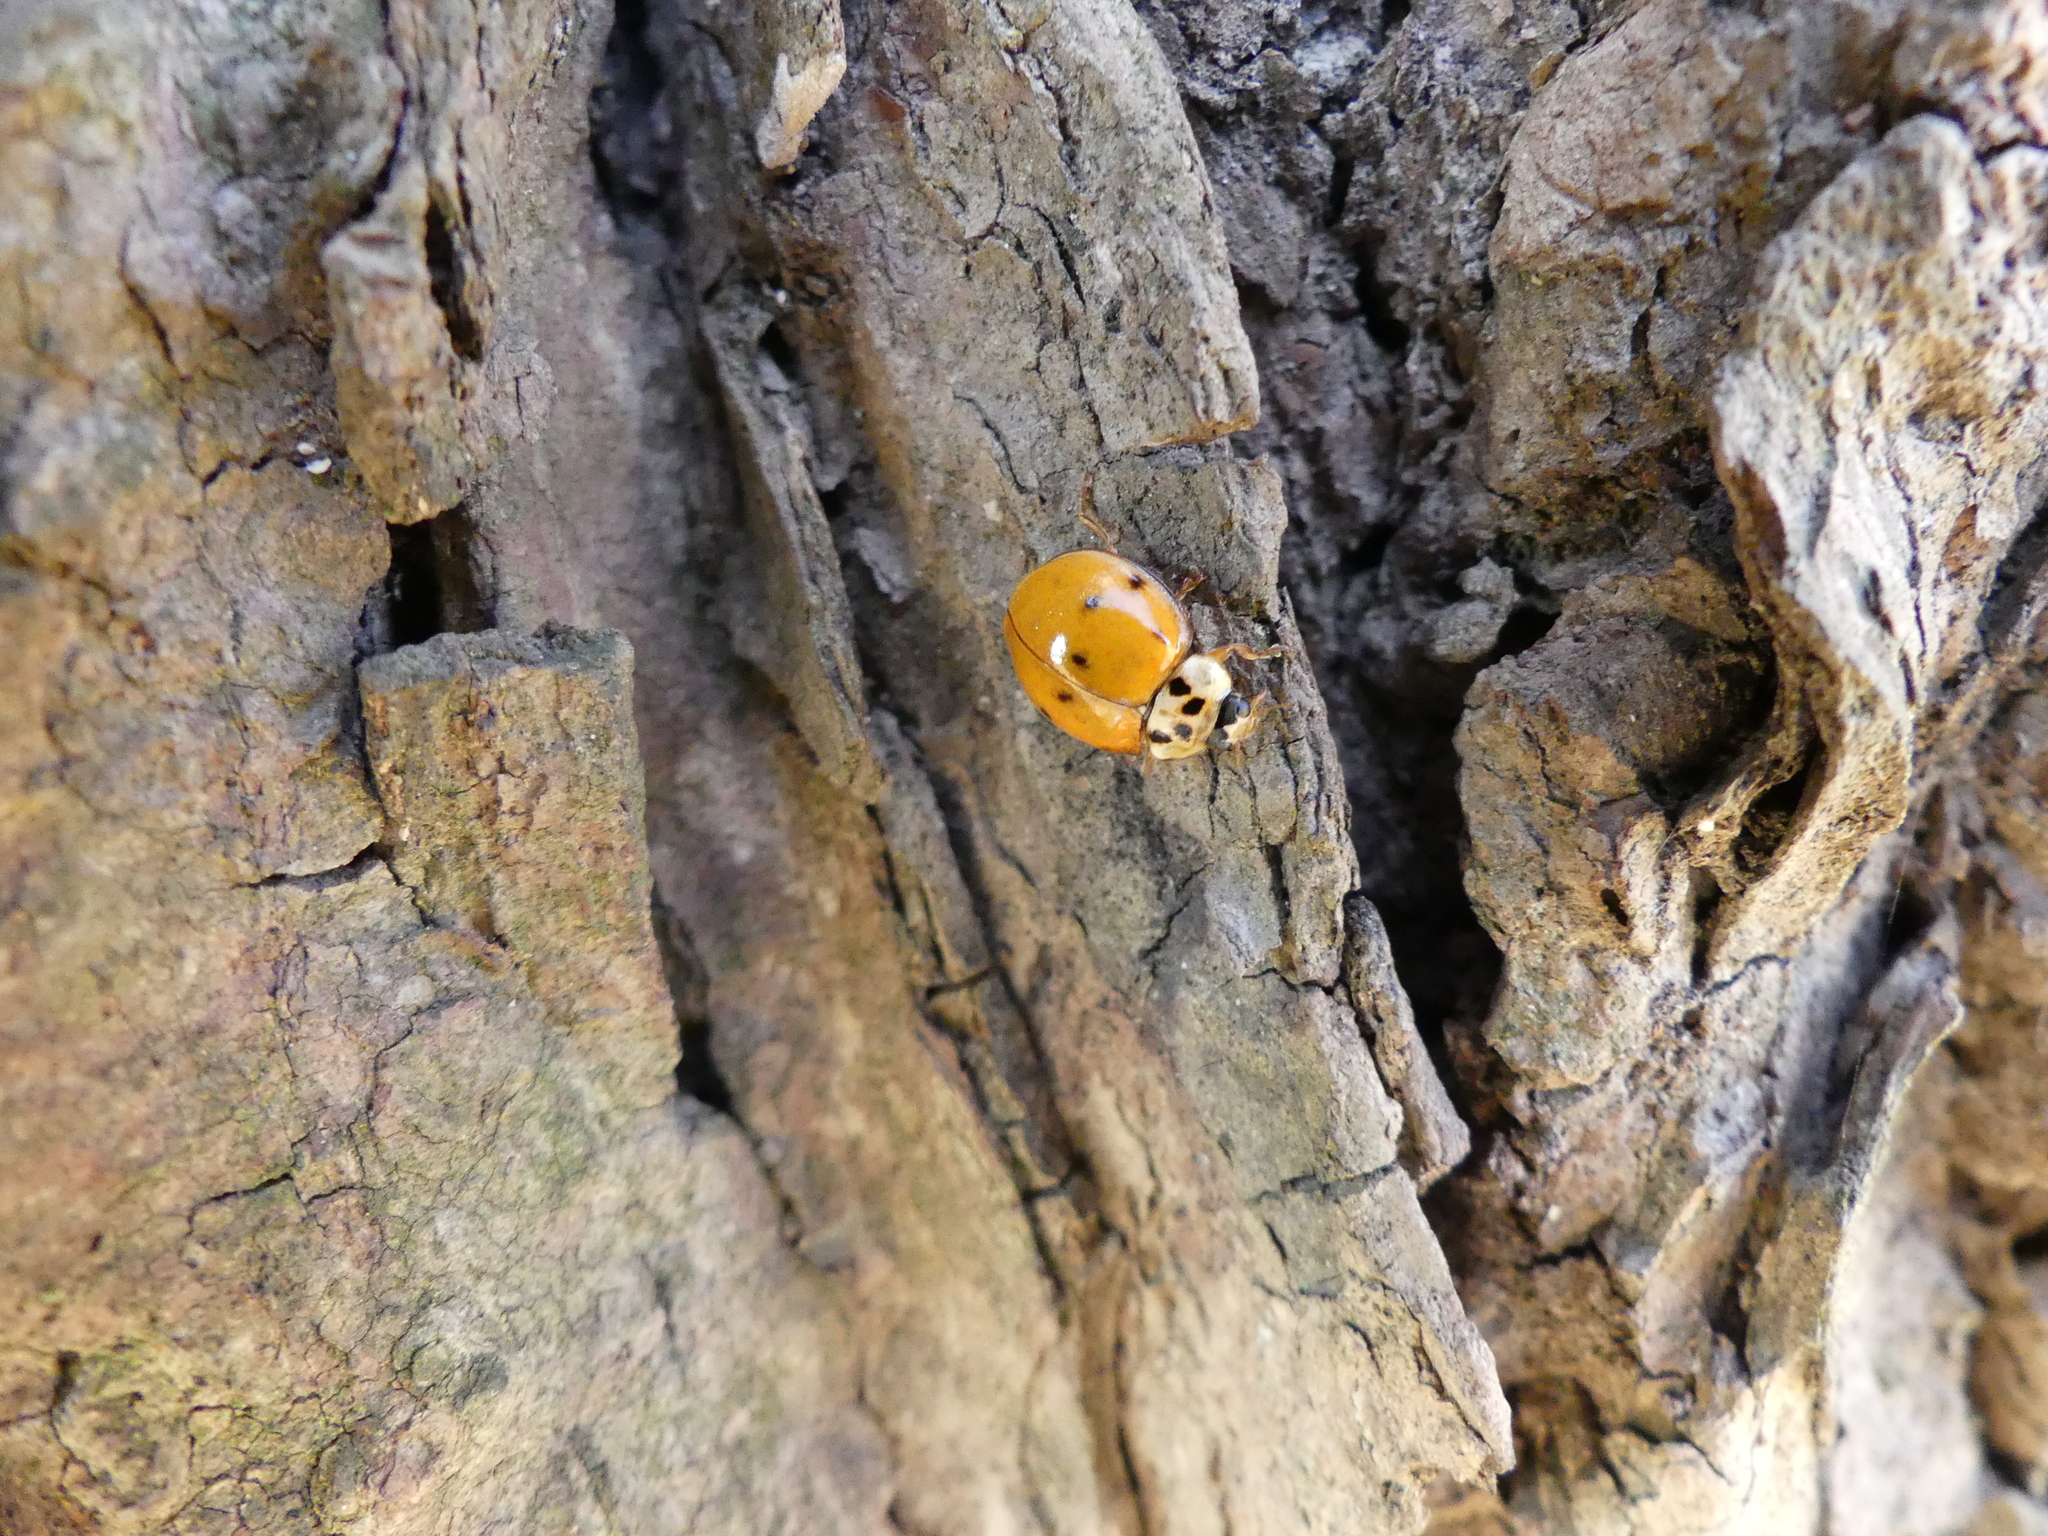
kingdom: Animalia
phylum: Arthropoda
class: Insecta
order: Coleoptera
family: Coccinellidae
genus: Harmonia
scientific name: Harmonia axyridis
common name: Harlequin ladybird
